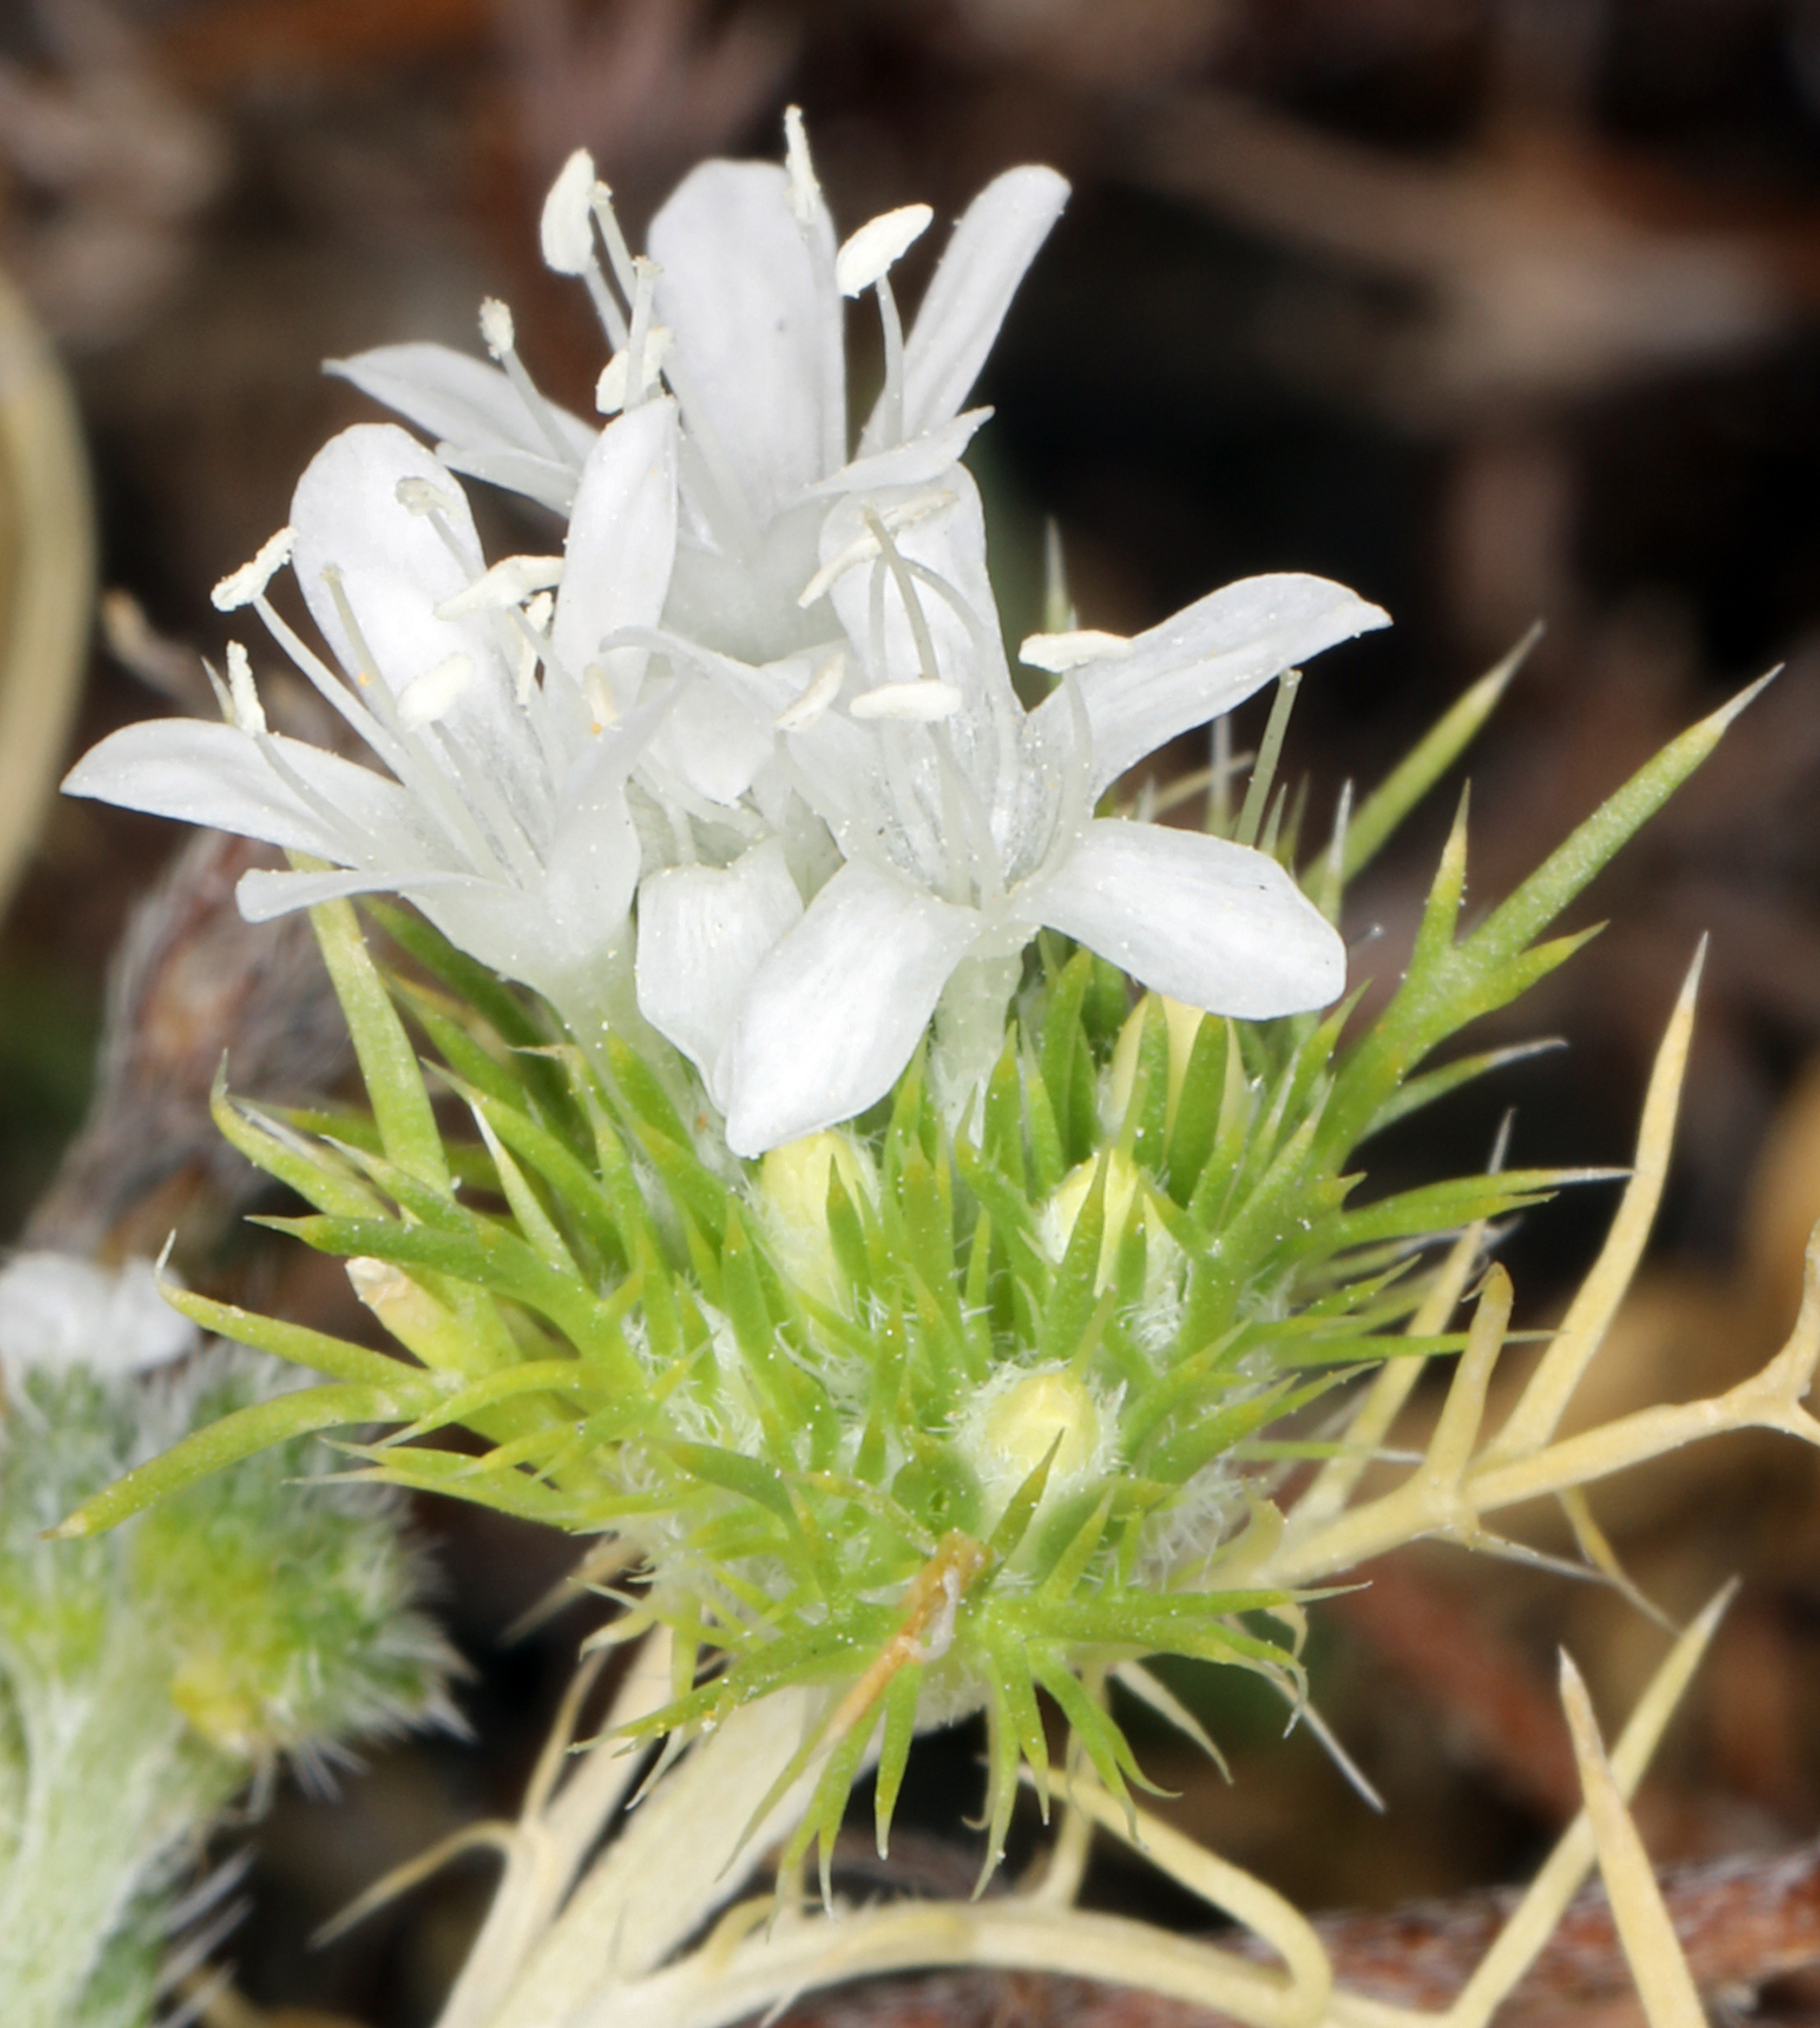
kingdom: Plantae
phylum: Tracheophyta
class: Magnoliopsida
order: Ericales
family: Polemoniaceae
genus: Navarretia
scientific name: Navarretia leucocephala
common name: White-flowered navarretia
